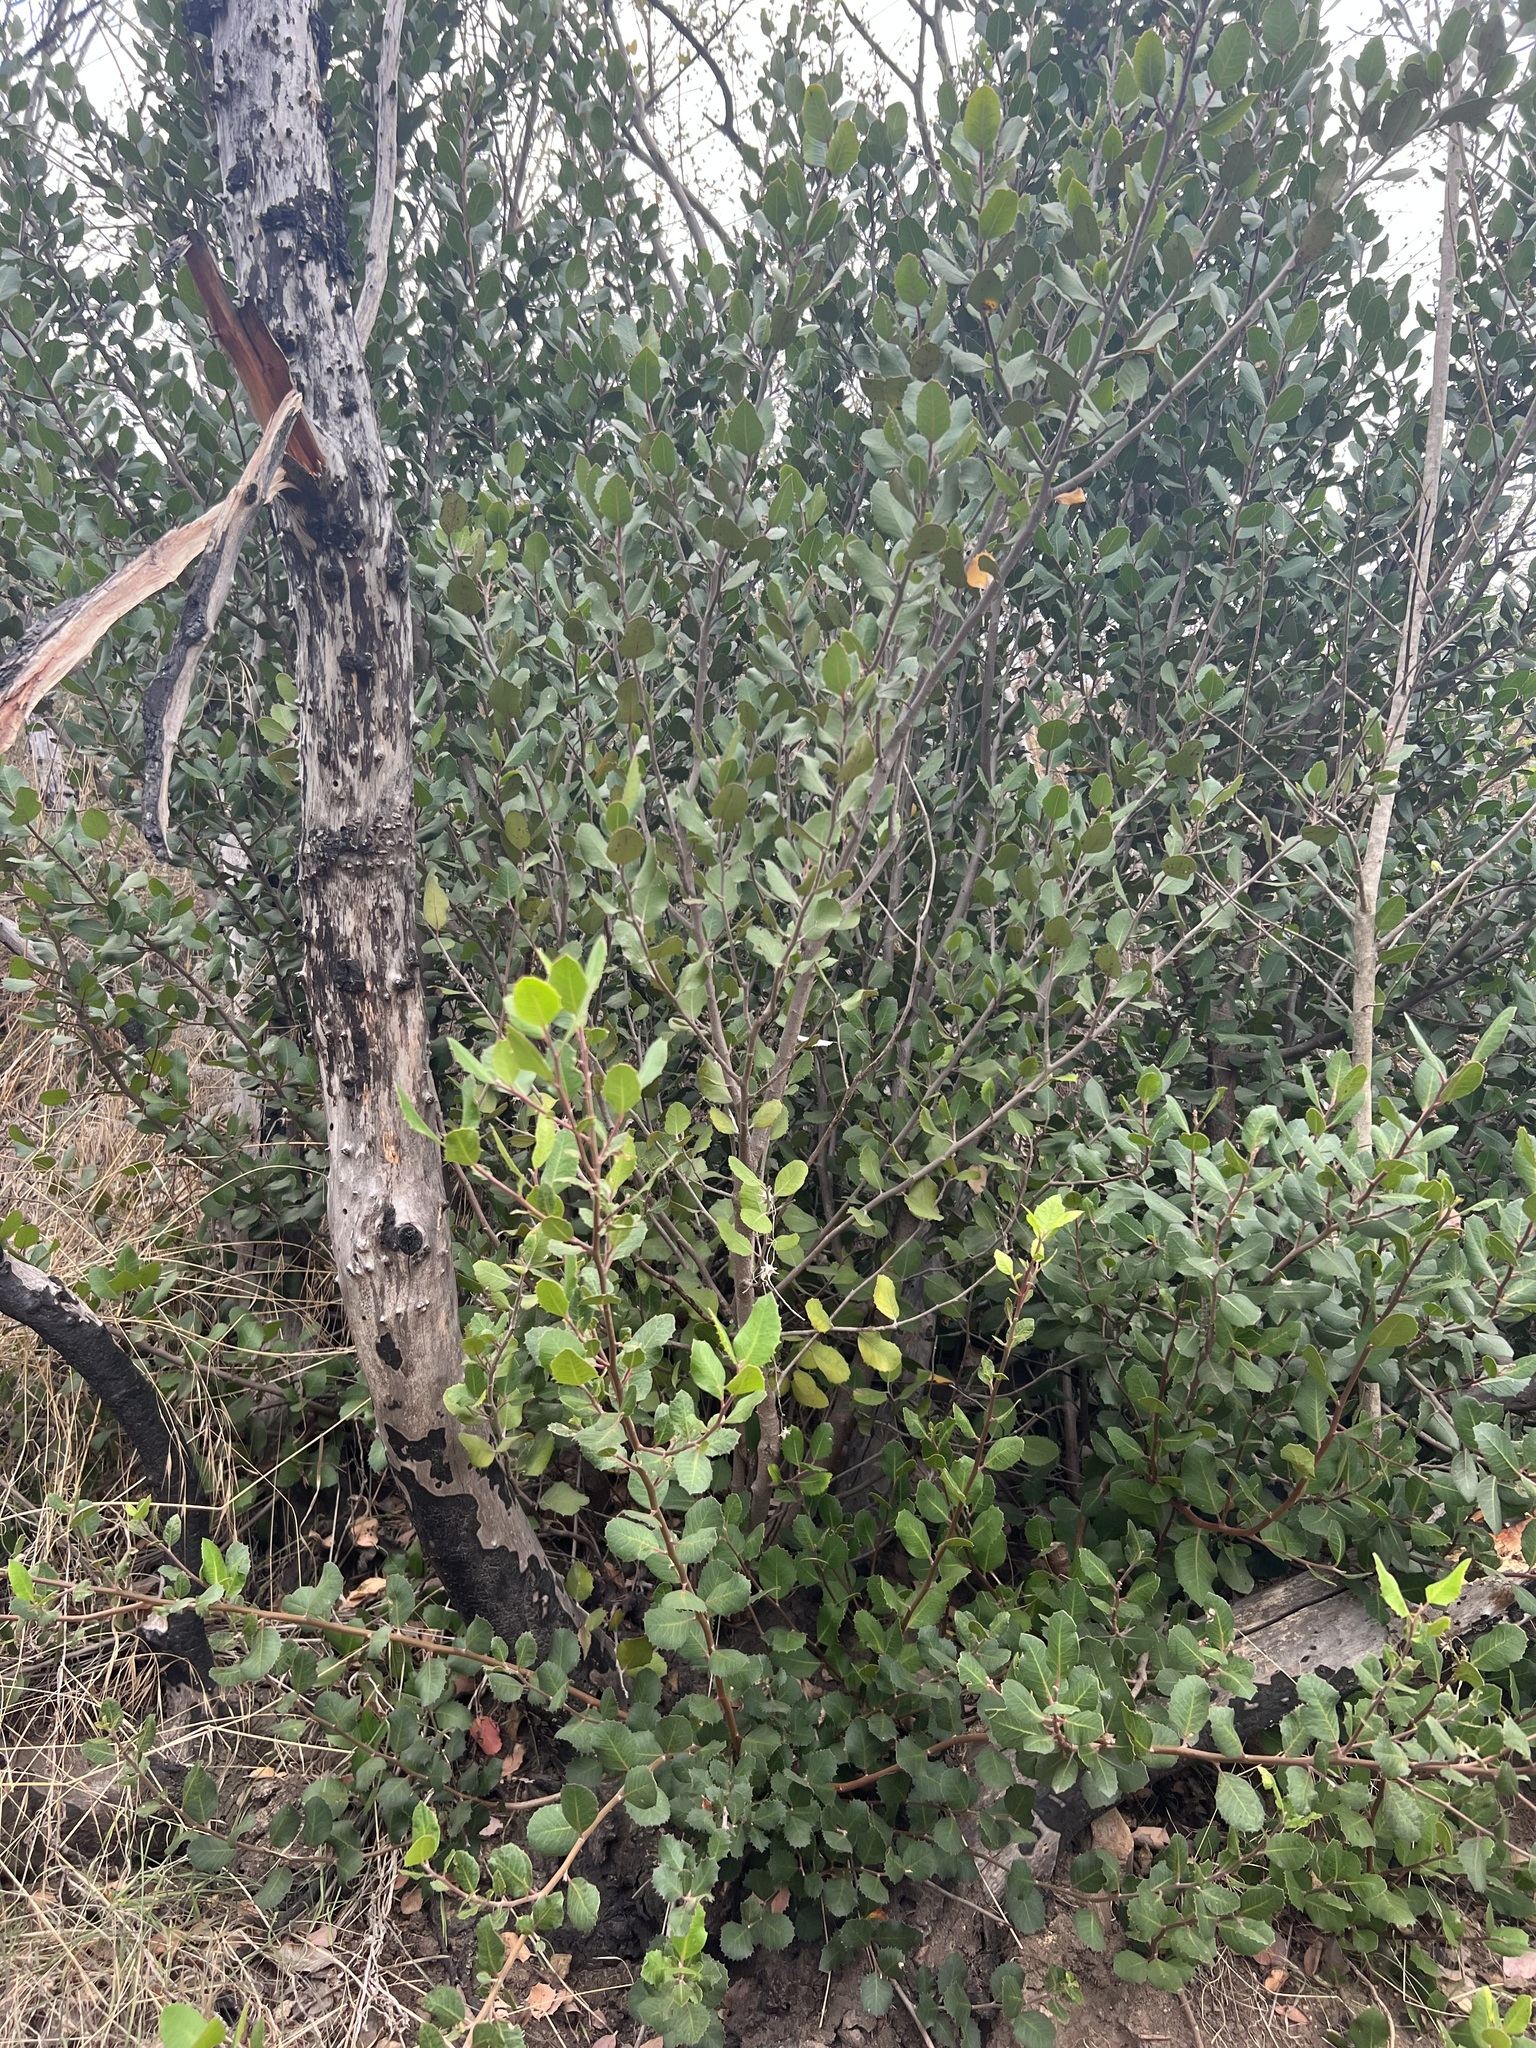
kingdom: Plantae
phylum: Tracheophyta
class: Magnoliopsida
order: Sapindales
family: Anacardiaceae
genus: Rhus
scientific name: Rhus integrifolia
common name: Lemonade sumac
